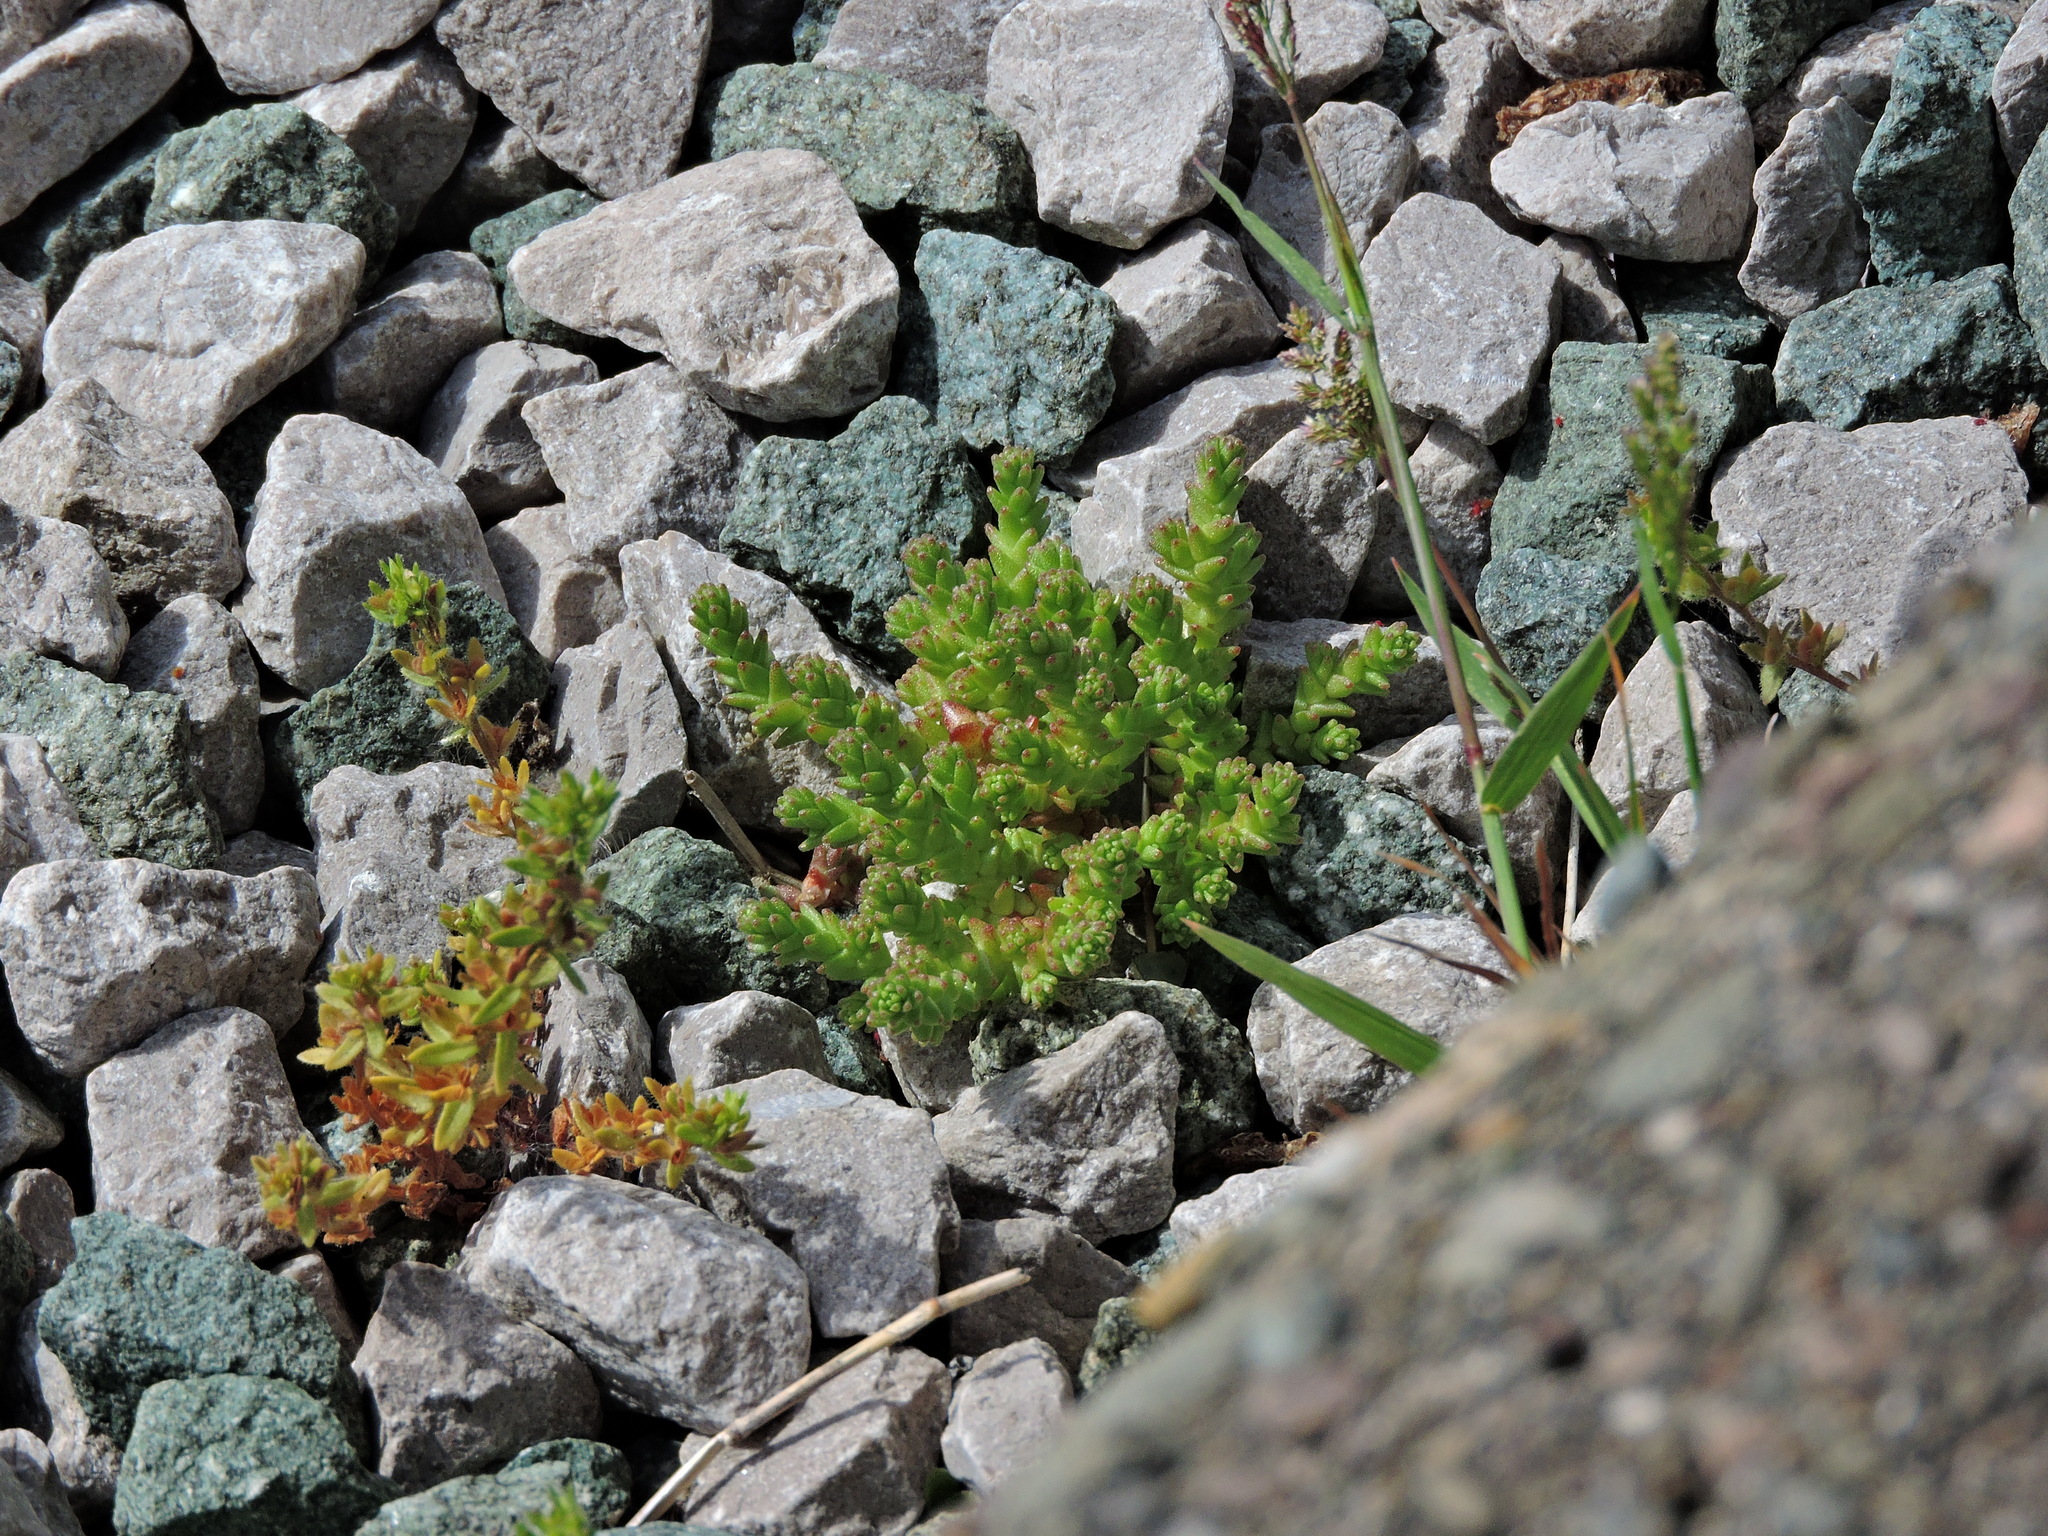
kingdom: Plantae
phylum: Tracheophyta
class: Magnoliopsida
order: Saxifragales
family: Crassulaceae
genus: Sedum
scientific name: Sedum acre
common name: Biting stonecrop
